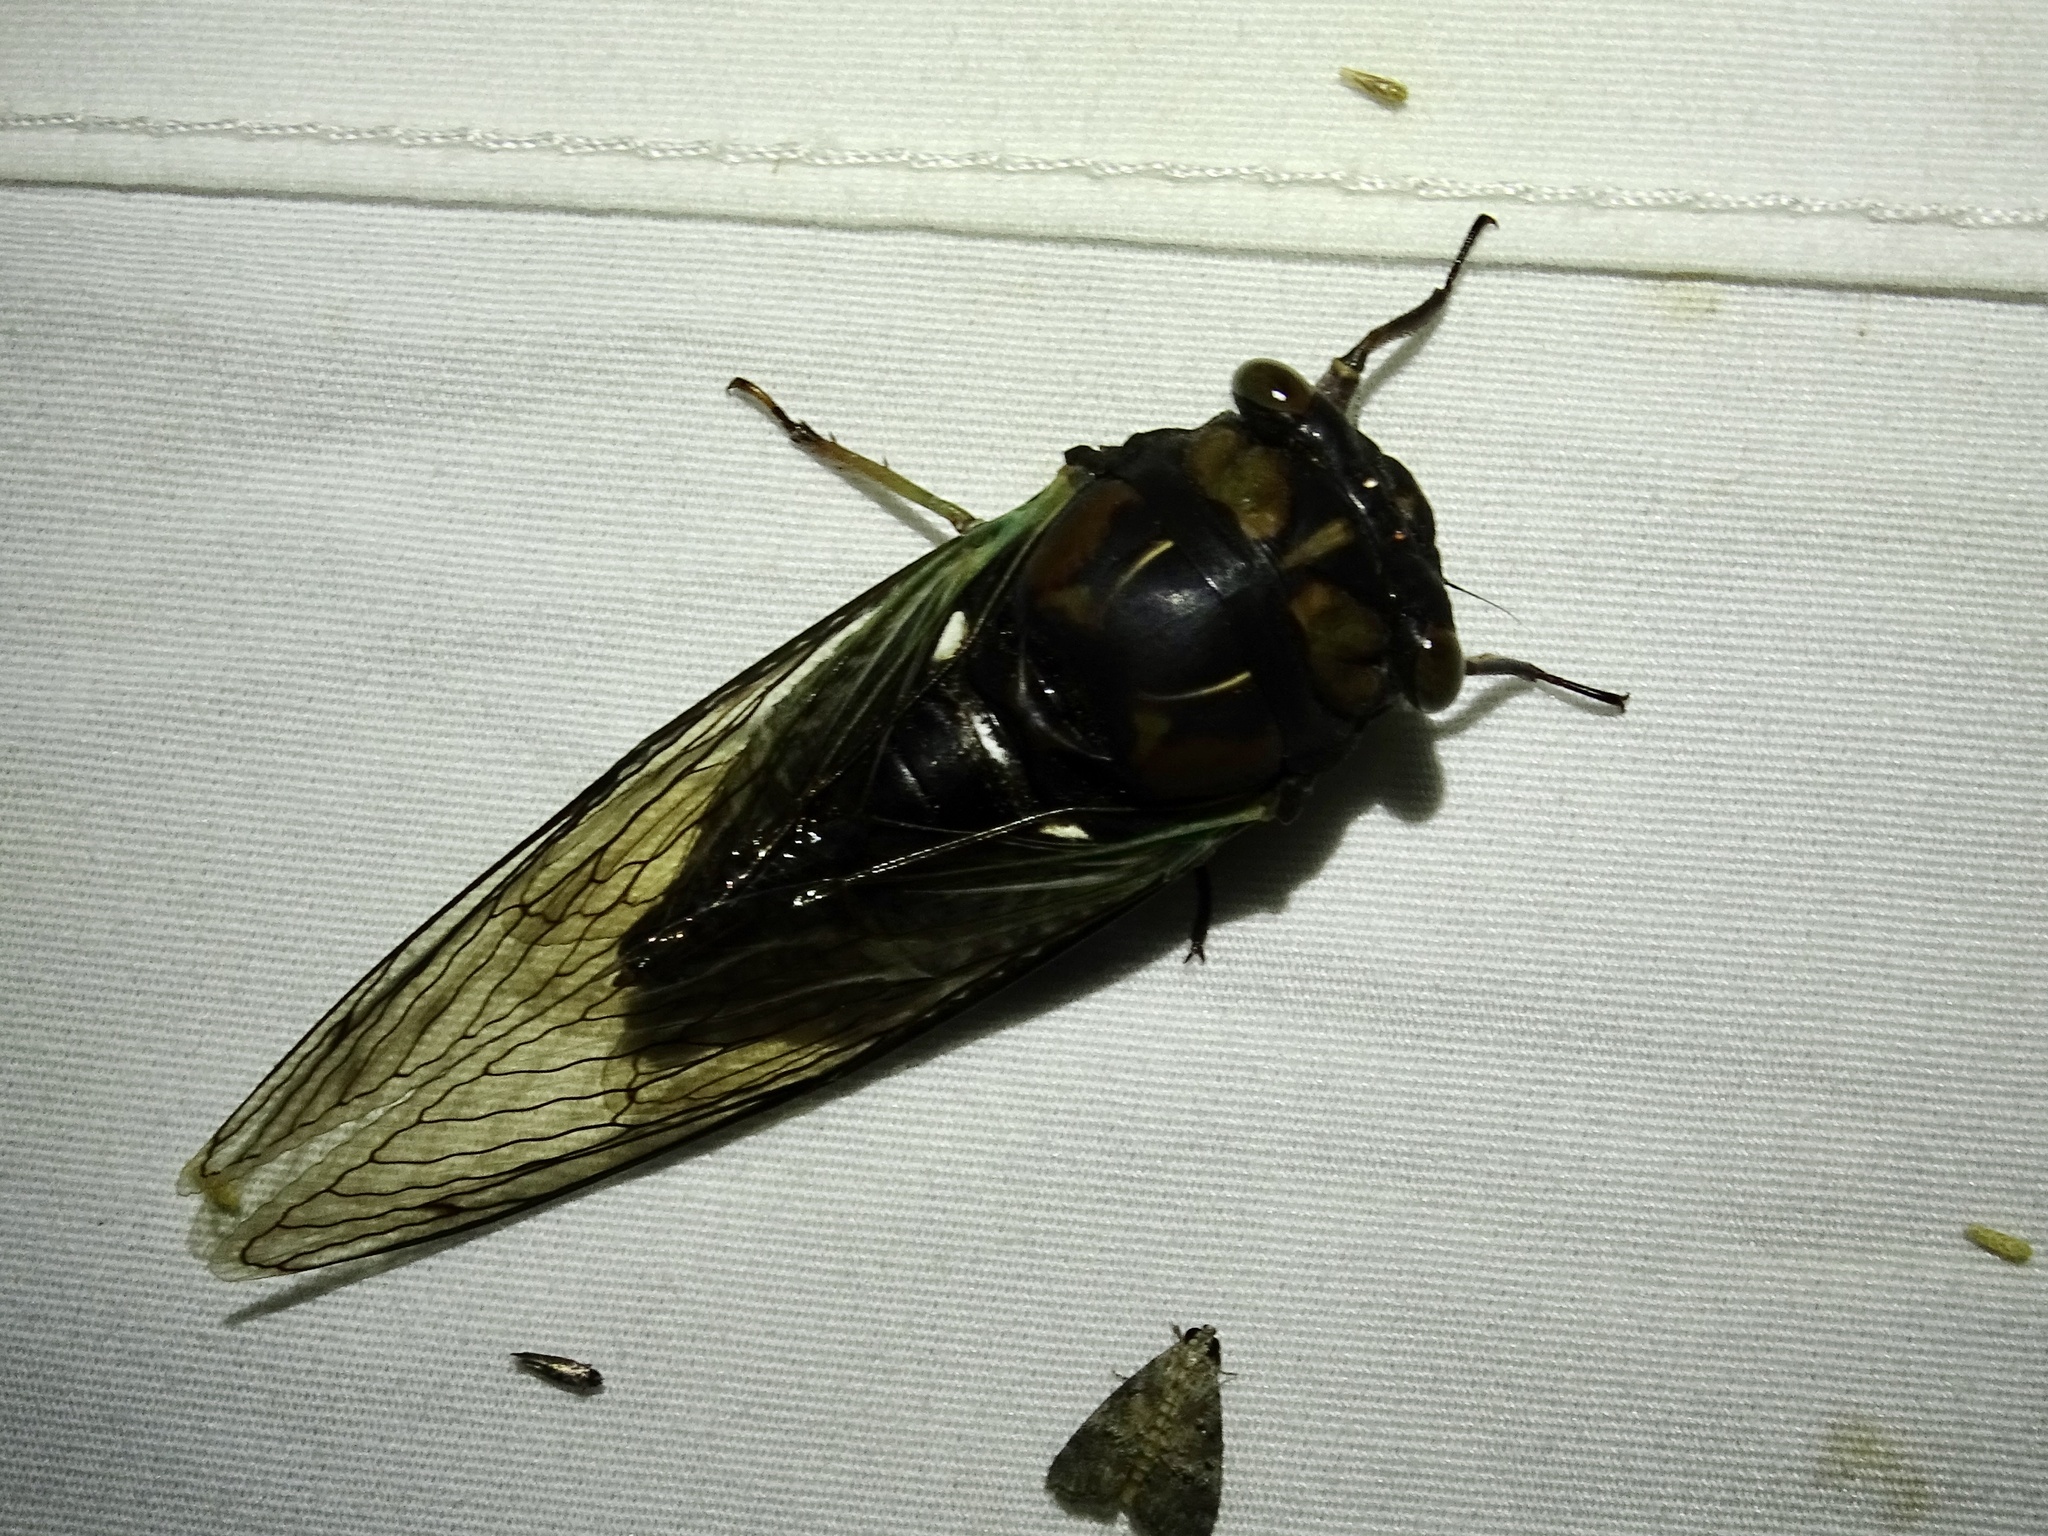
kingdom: Animalia
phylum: Arthropoda
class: Insecta
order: Hemiptera
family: Cicadidae
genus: Neotibicen
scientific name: Neotibicen lyricen
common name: Lyric cicada
